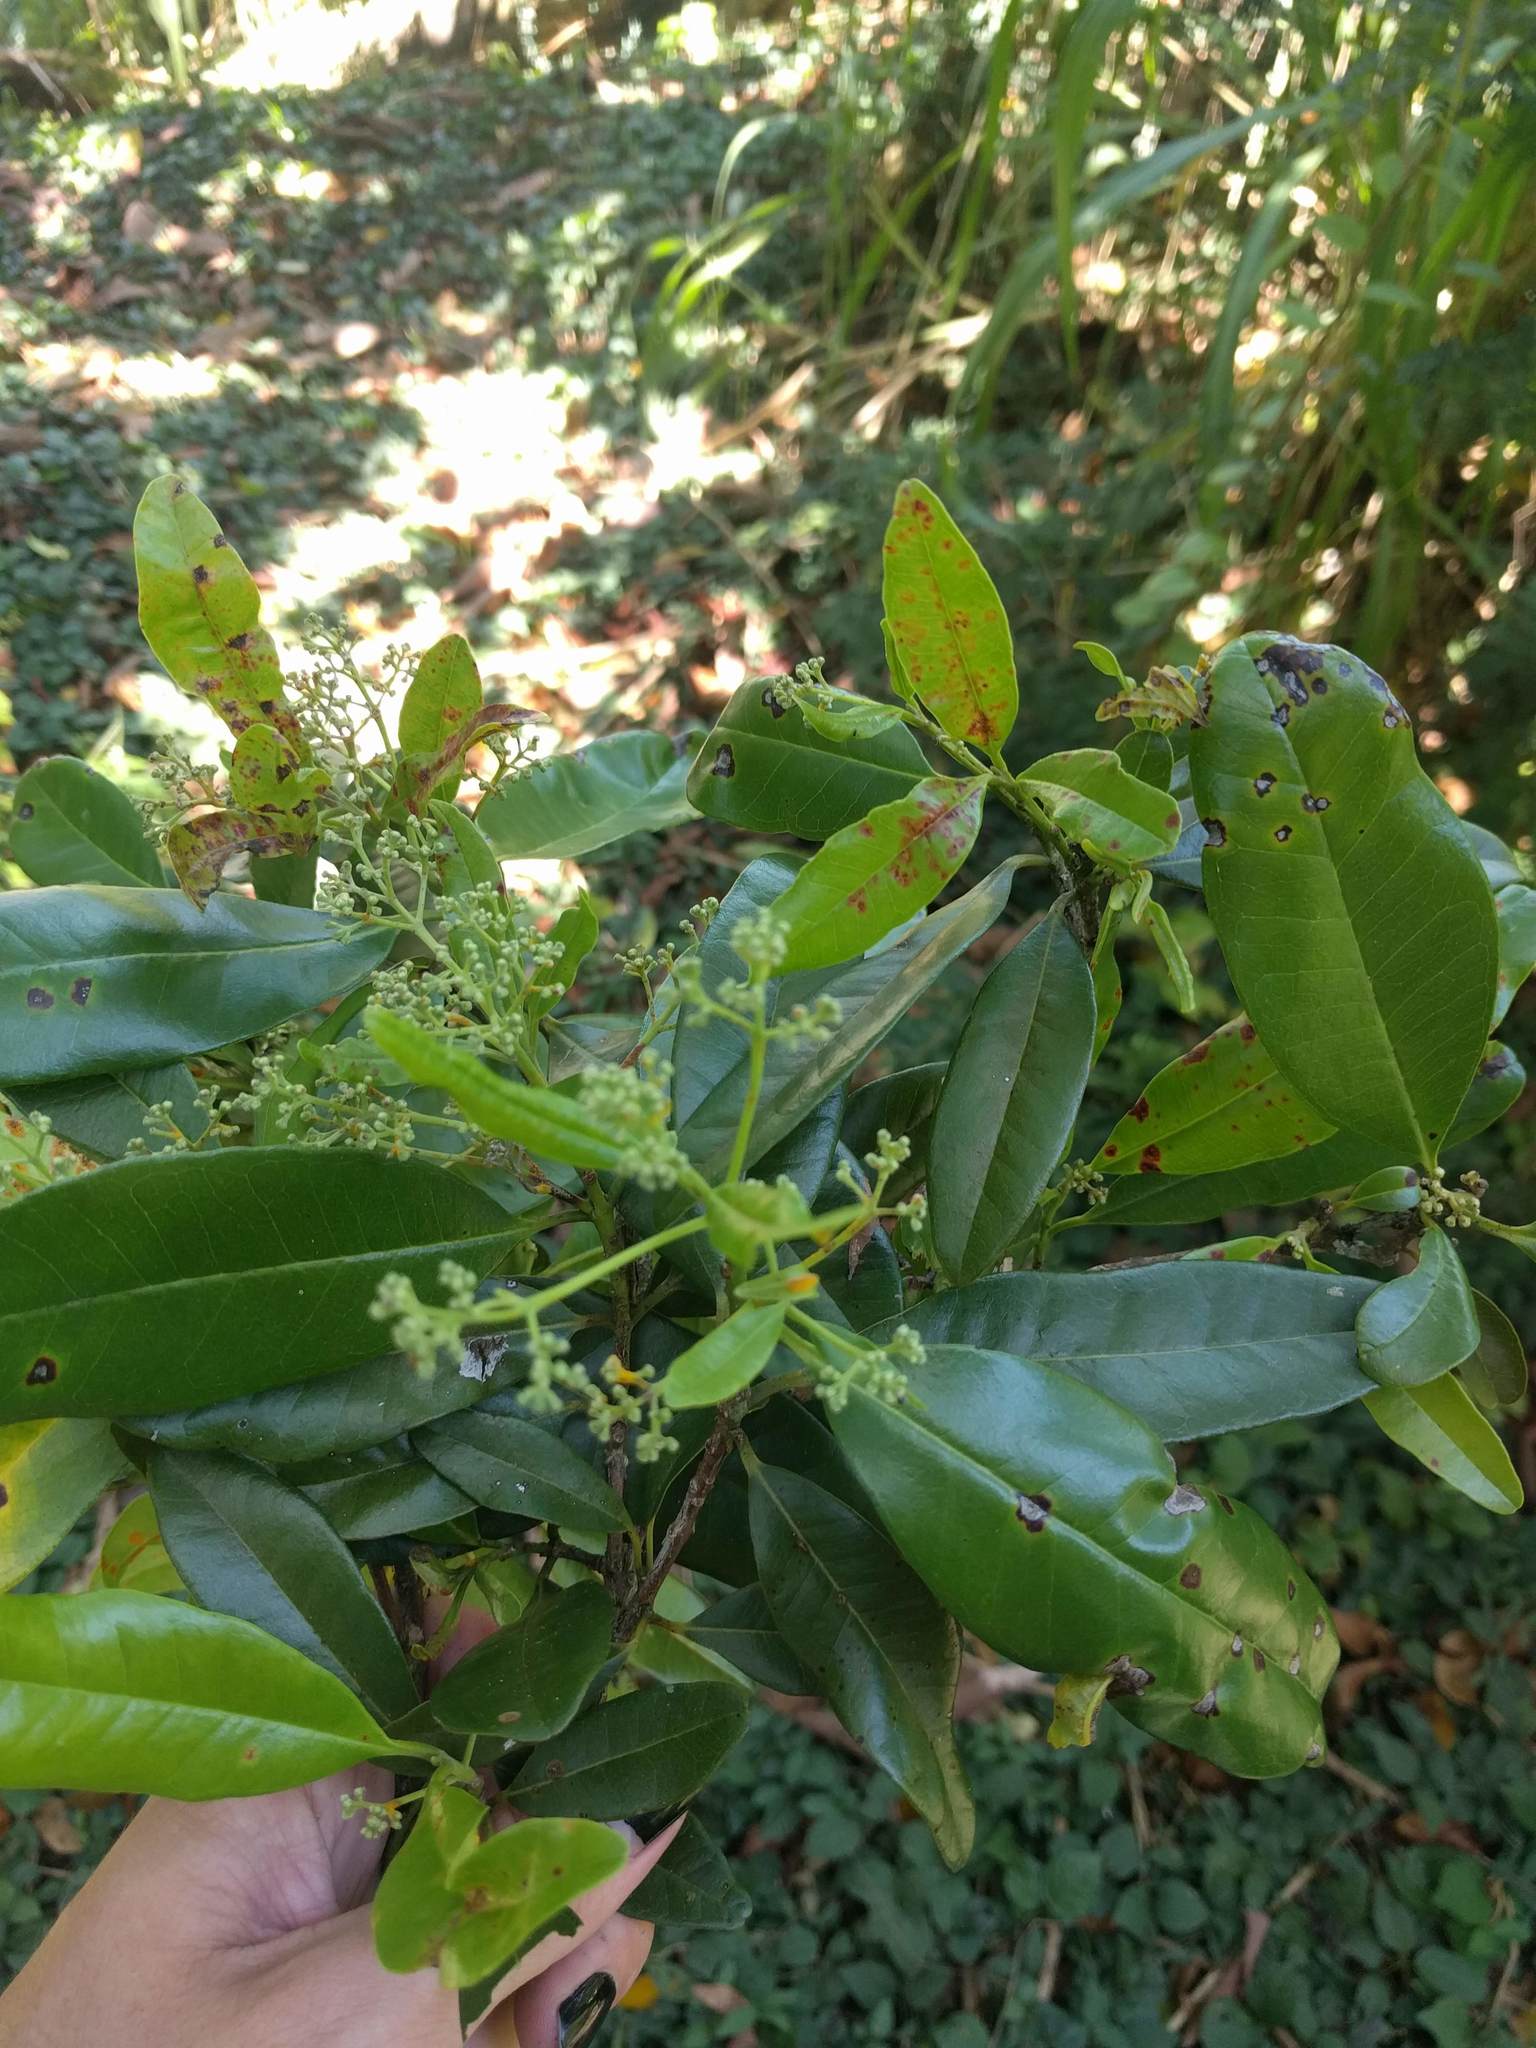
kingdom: Plantae
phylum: Tracheophyta
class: Magnoliopsida
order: Myrtales
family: Myrtaceae
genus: Pimenta
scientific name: Pimenta dioica
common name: Allspice
